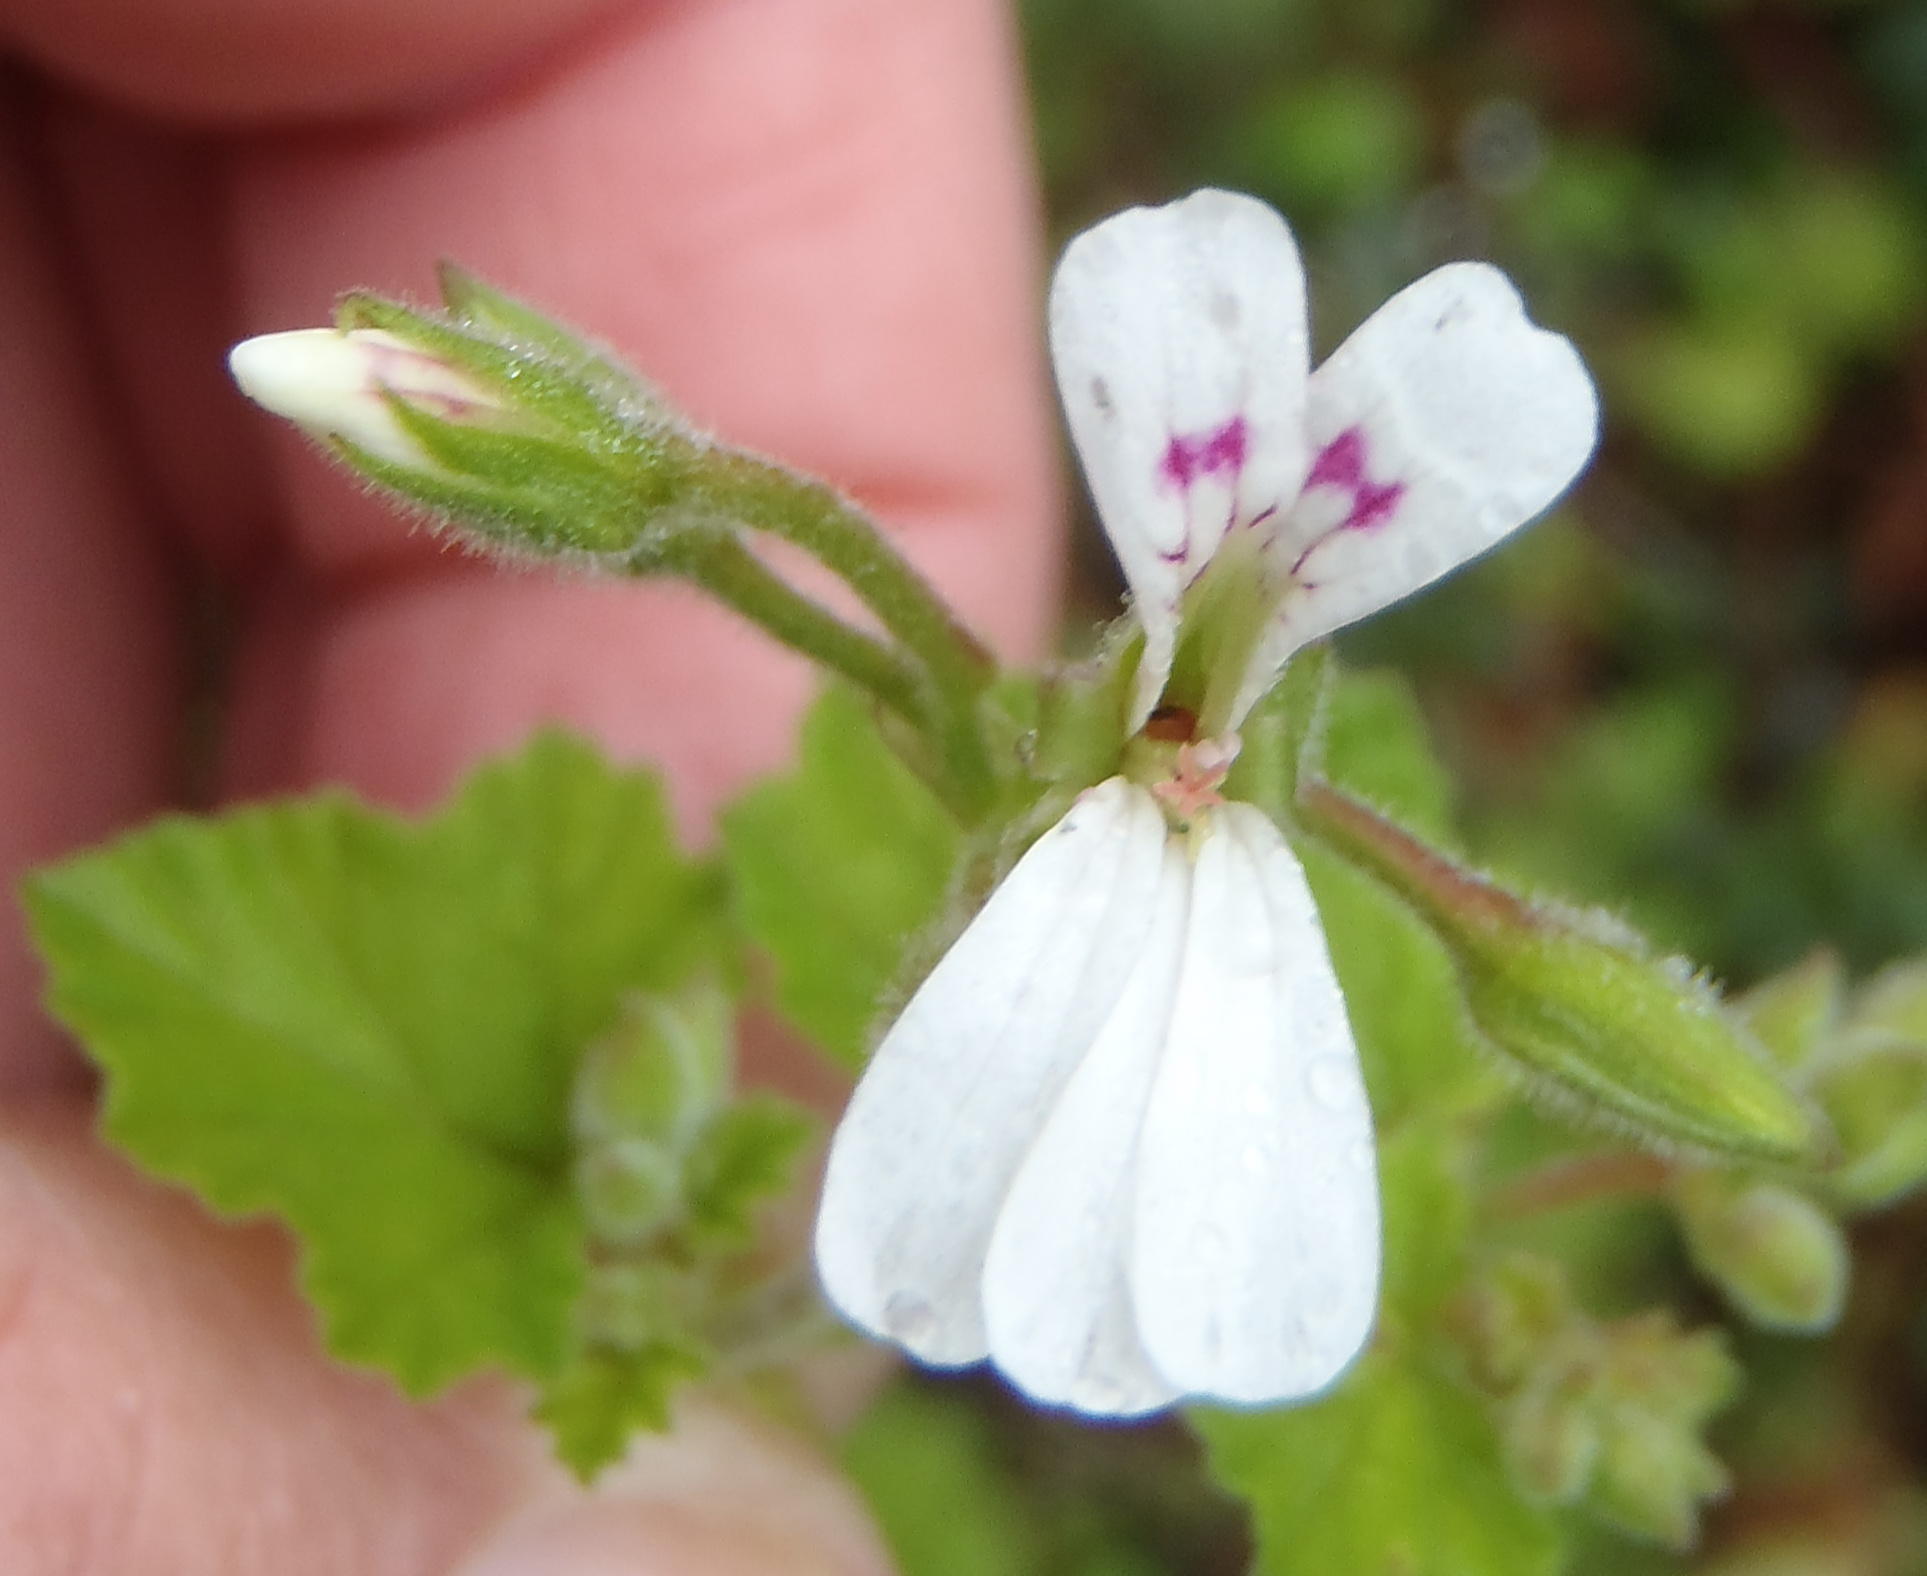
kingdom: Plantae
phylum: Tracheophyta
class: Magnoliopsida
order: Geraniales
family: Geraniaceae
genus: Pelargonium
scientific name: Pelargonium odoratissimum
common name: Apple geranium
